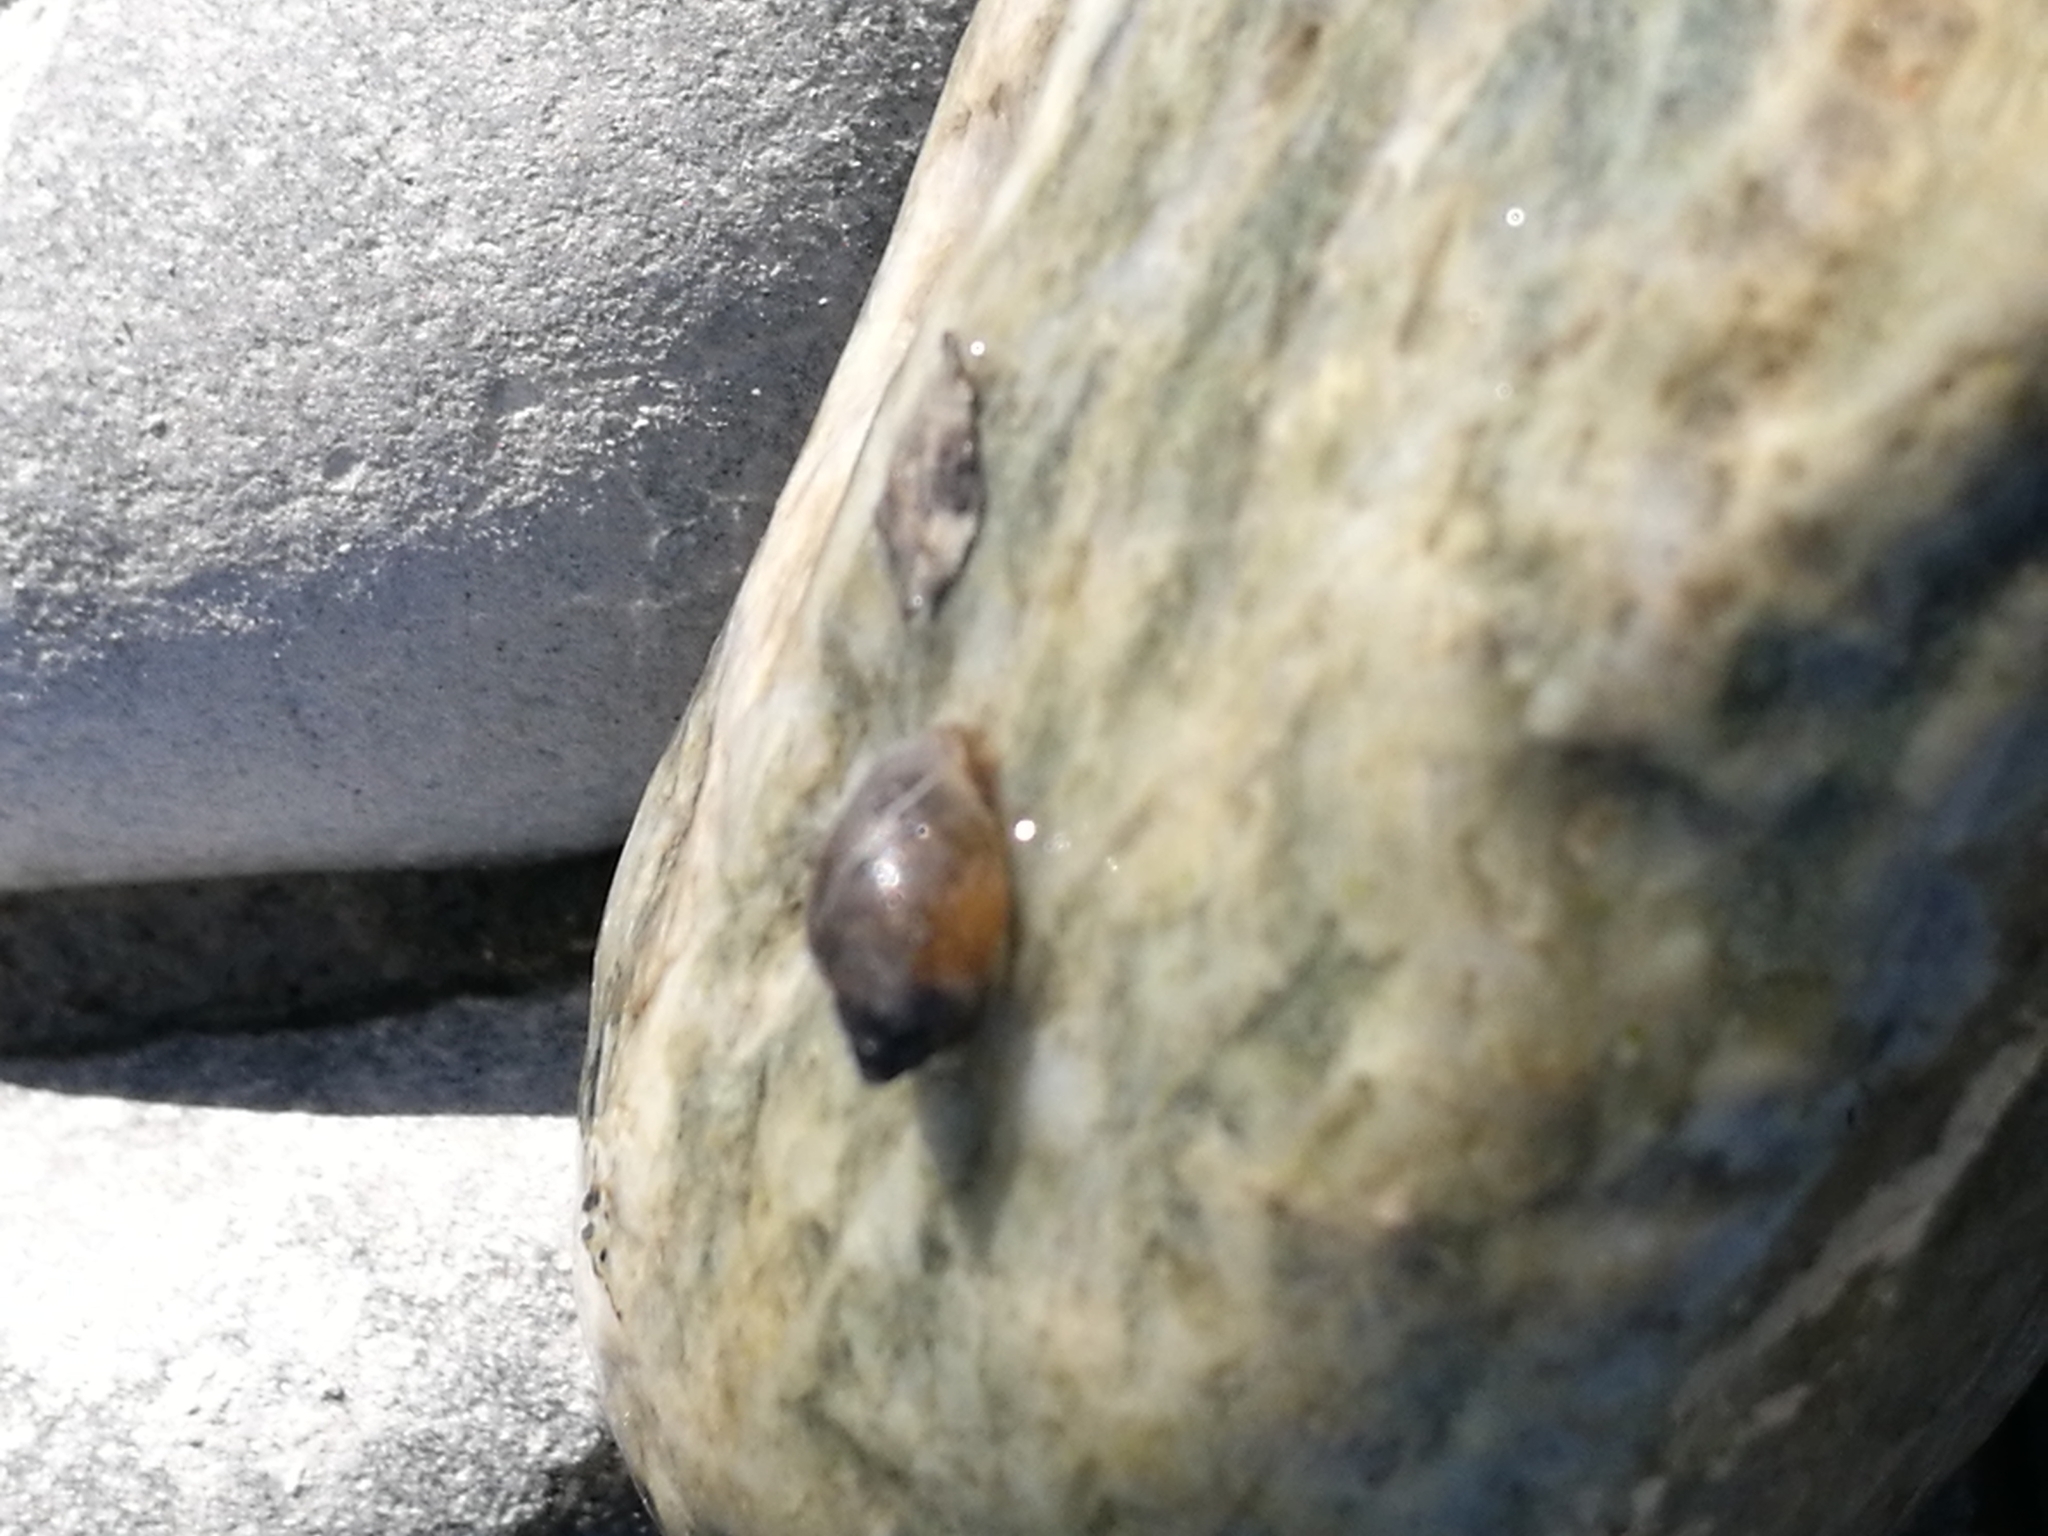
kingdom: Animalia
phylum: Mollusca
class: Gastropoda
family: Physidae
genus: Physella
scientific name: Physella acuta
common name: European physa
